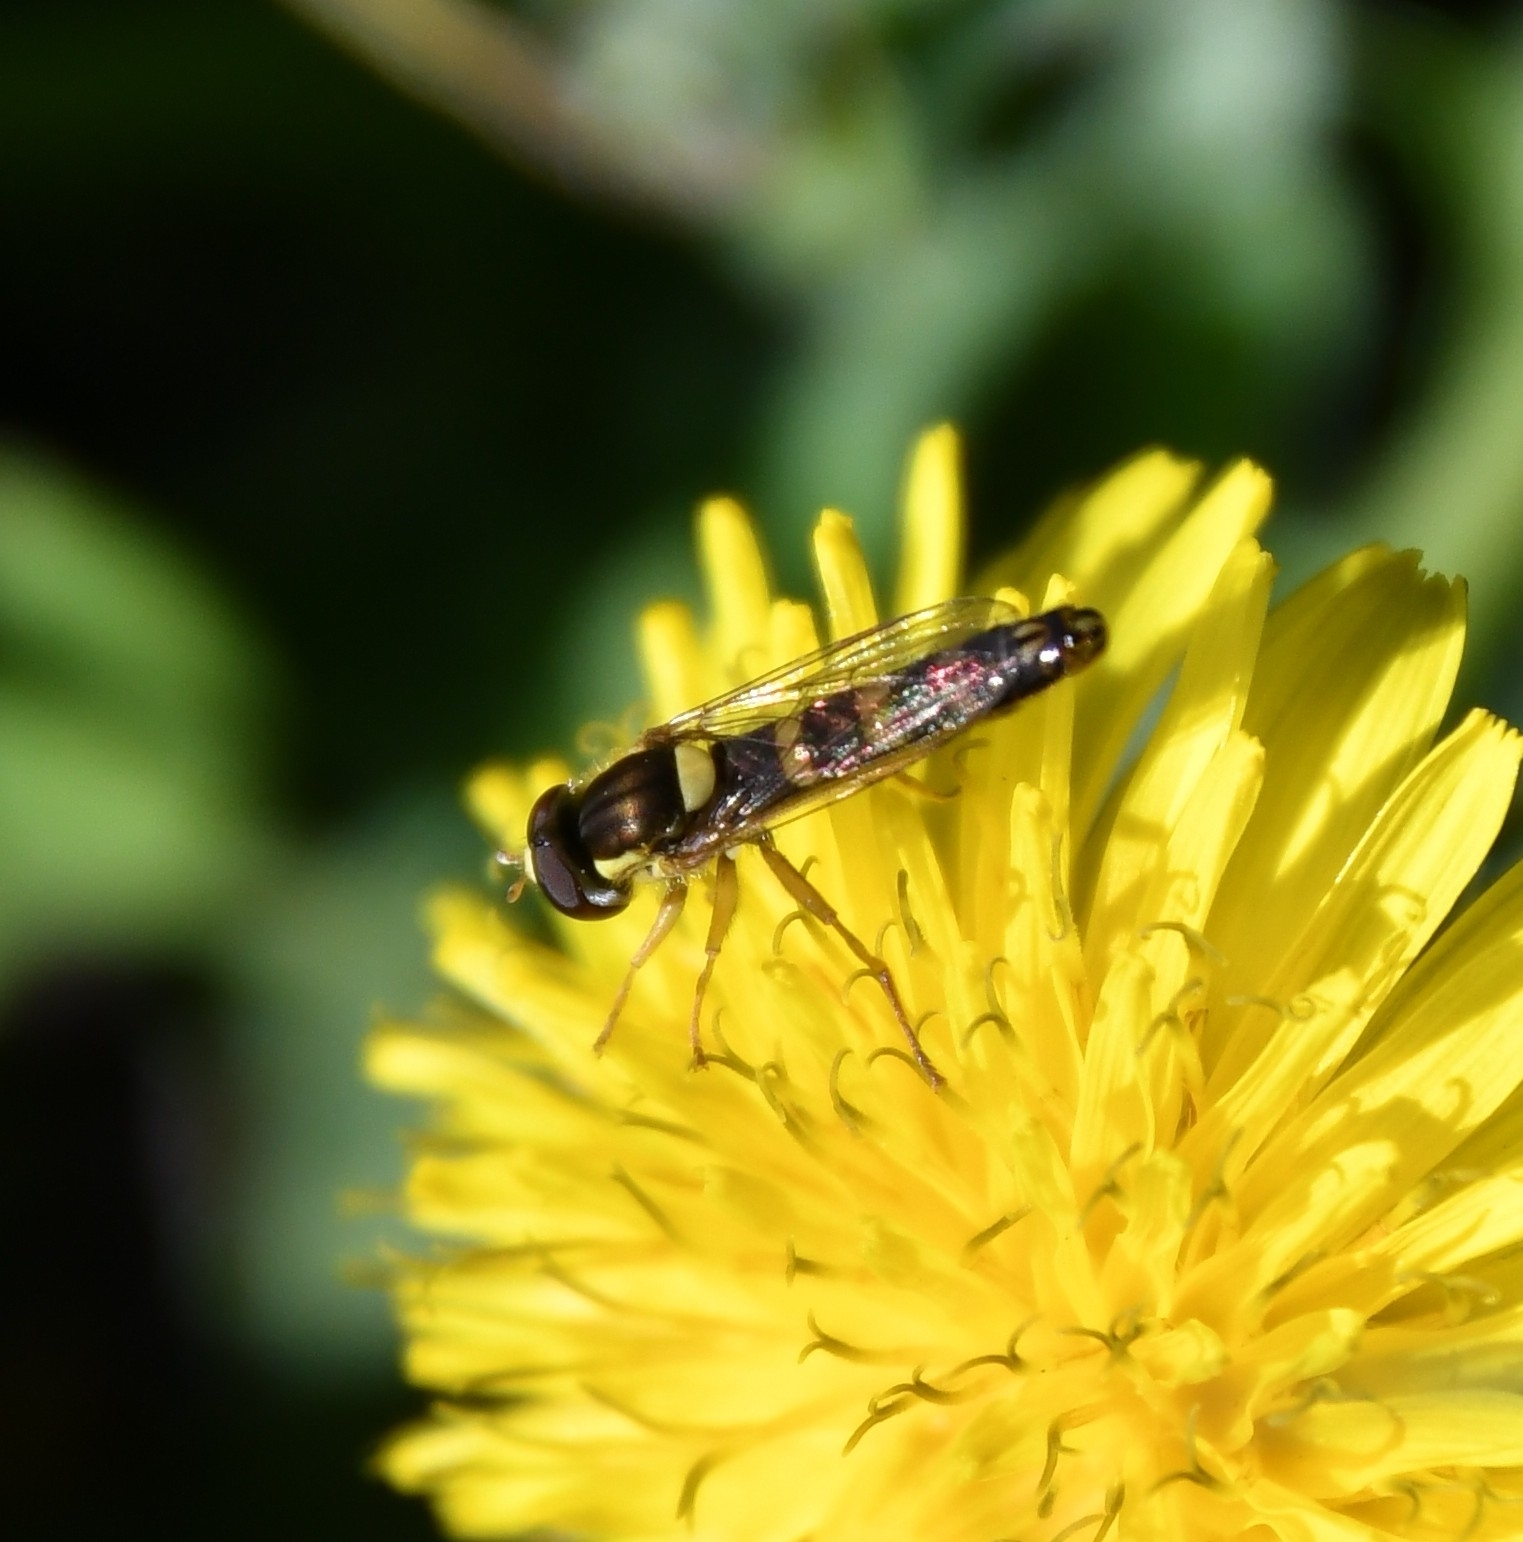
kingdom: Animalia
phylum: Arthropoda
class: Insecta
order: Diptera
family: Syrphidae
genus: Sphaerophoria
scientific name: Sphaerophoria scripta
